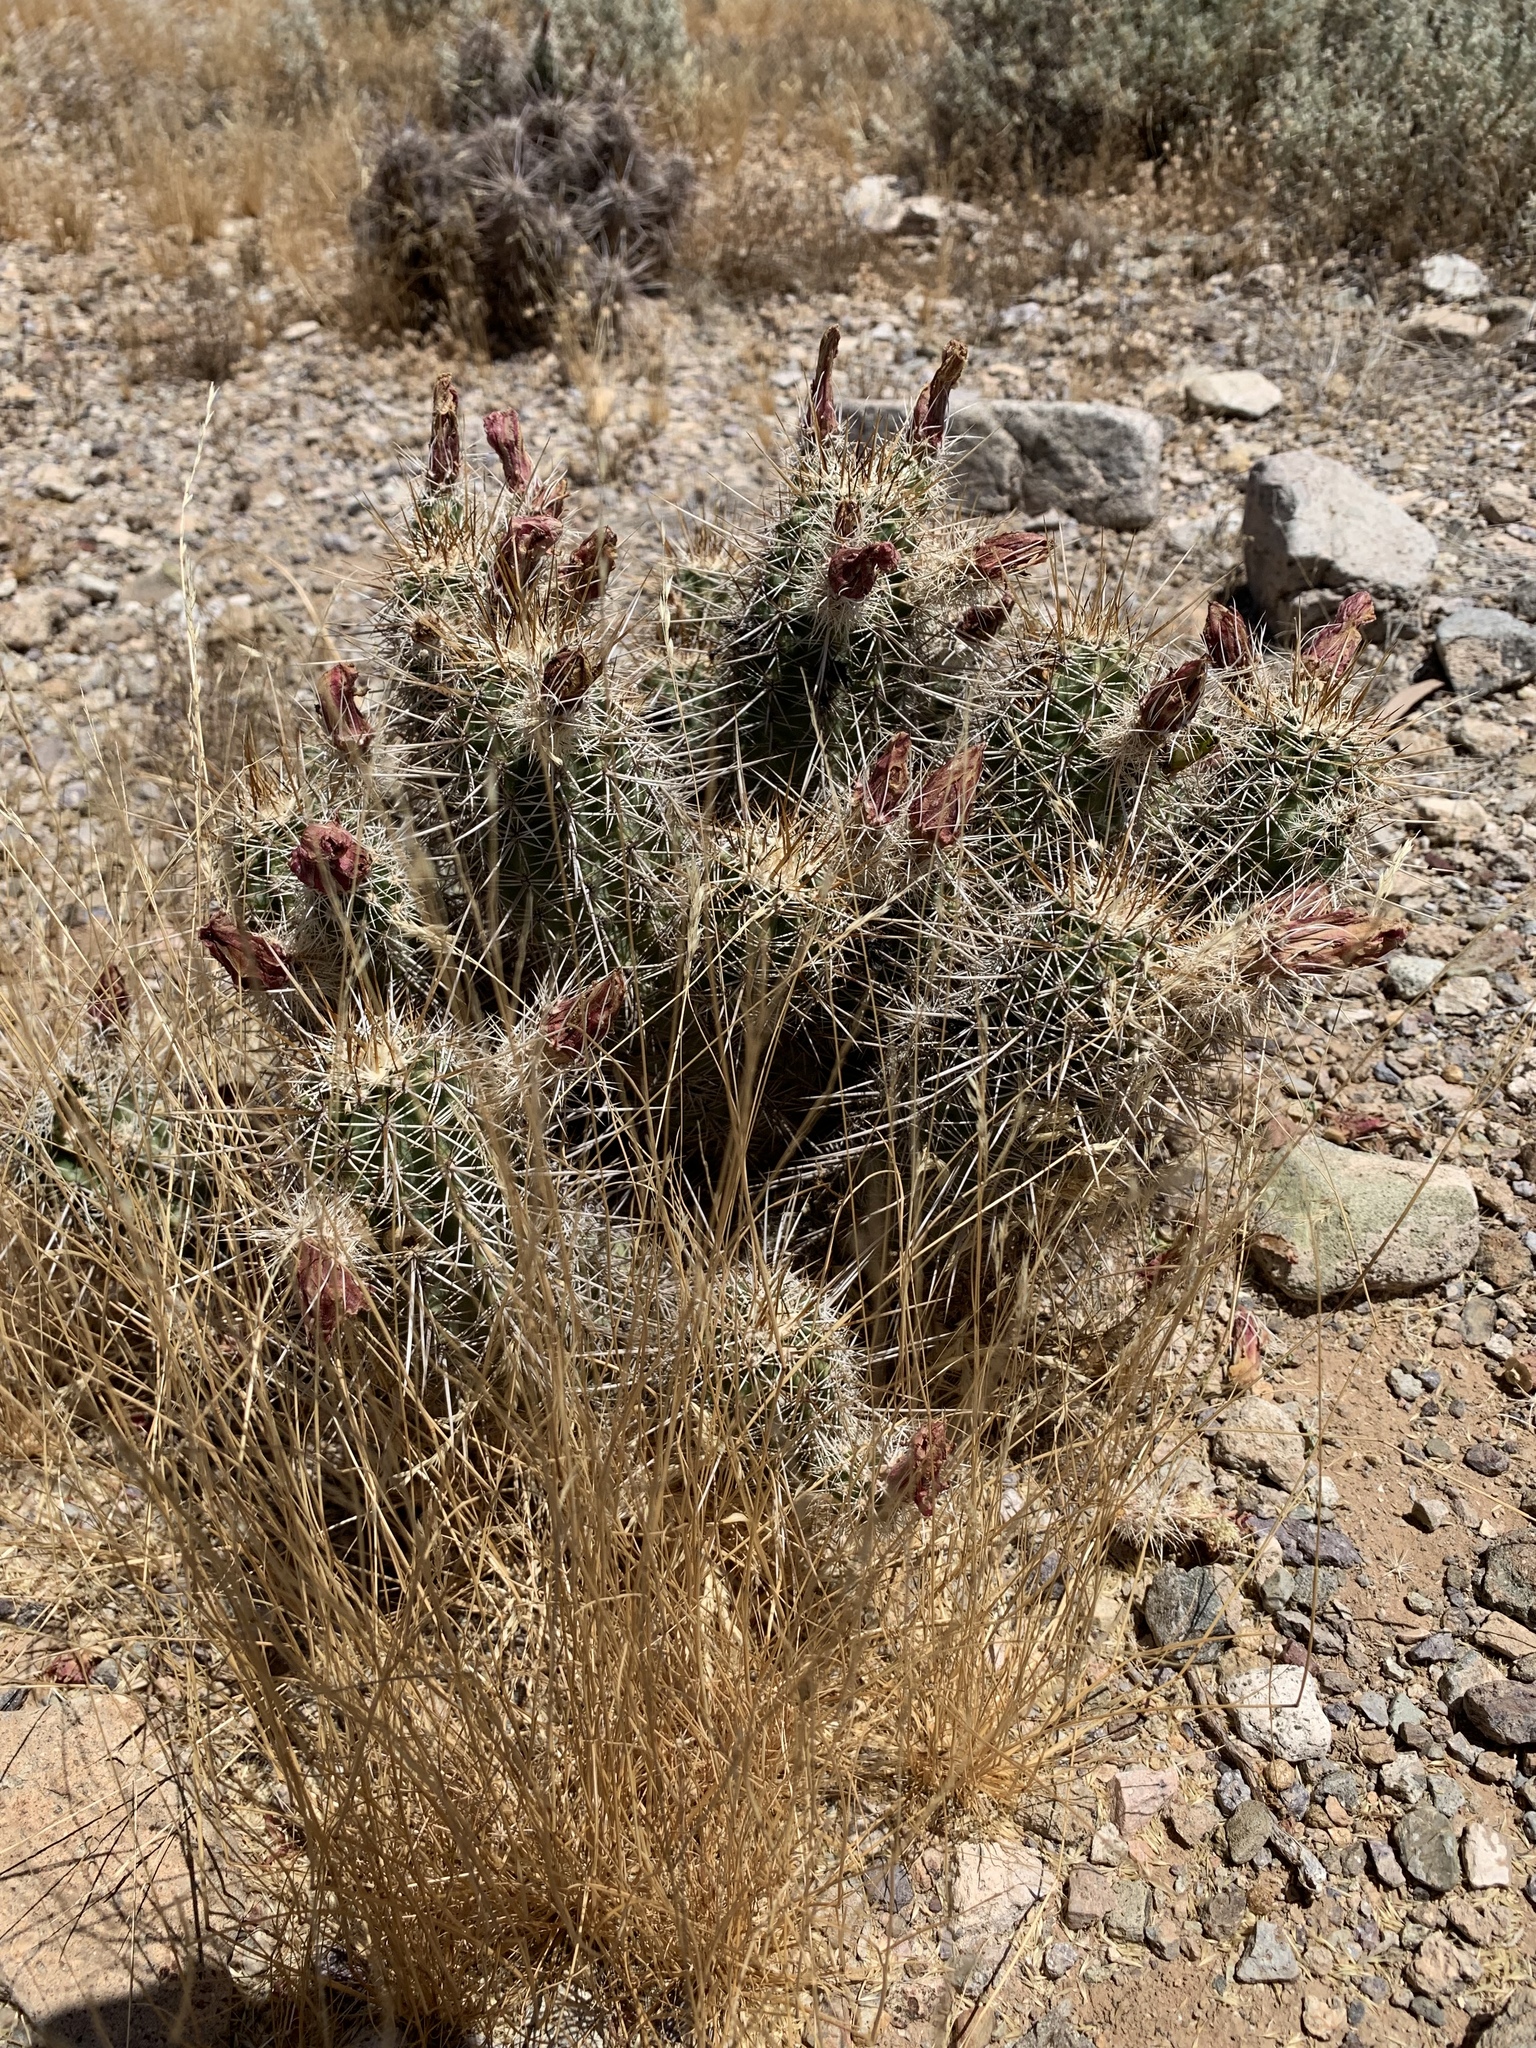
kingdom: Plantae
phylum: Tracheophyta
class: Magnoliopsida
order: Caryophyllales
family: Cactaceae
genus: Echinocereus
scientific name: Echinocereus fasciculatus
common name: Bundle hedgehog
